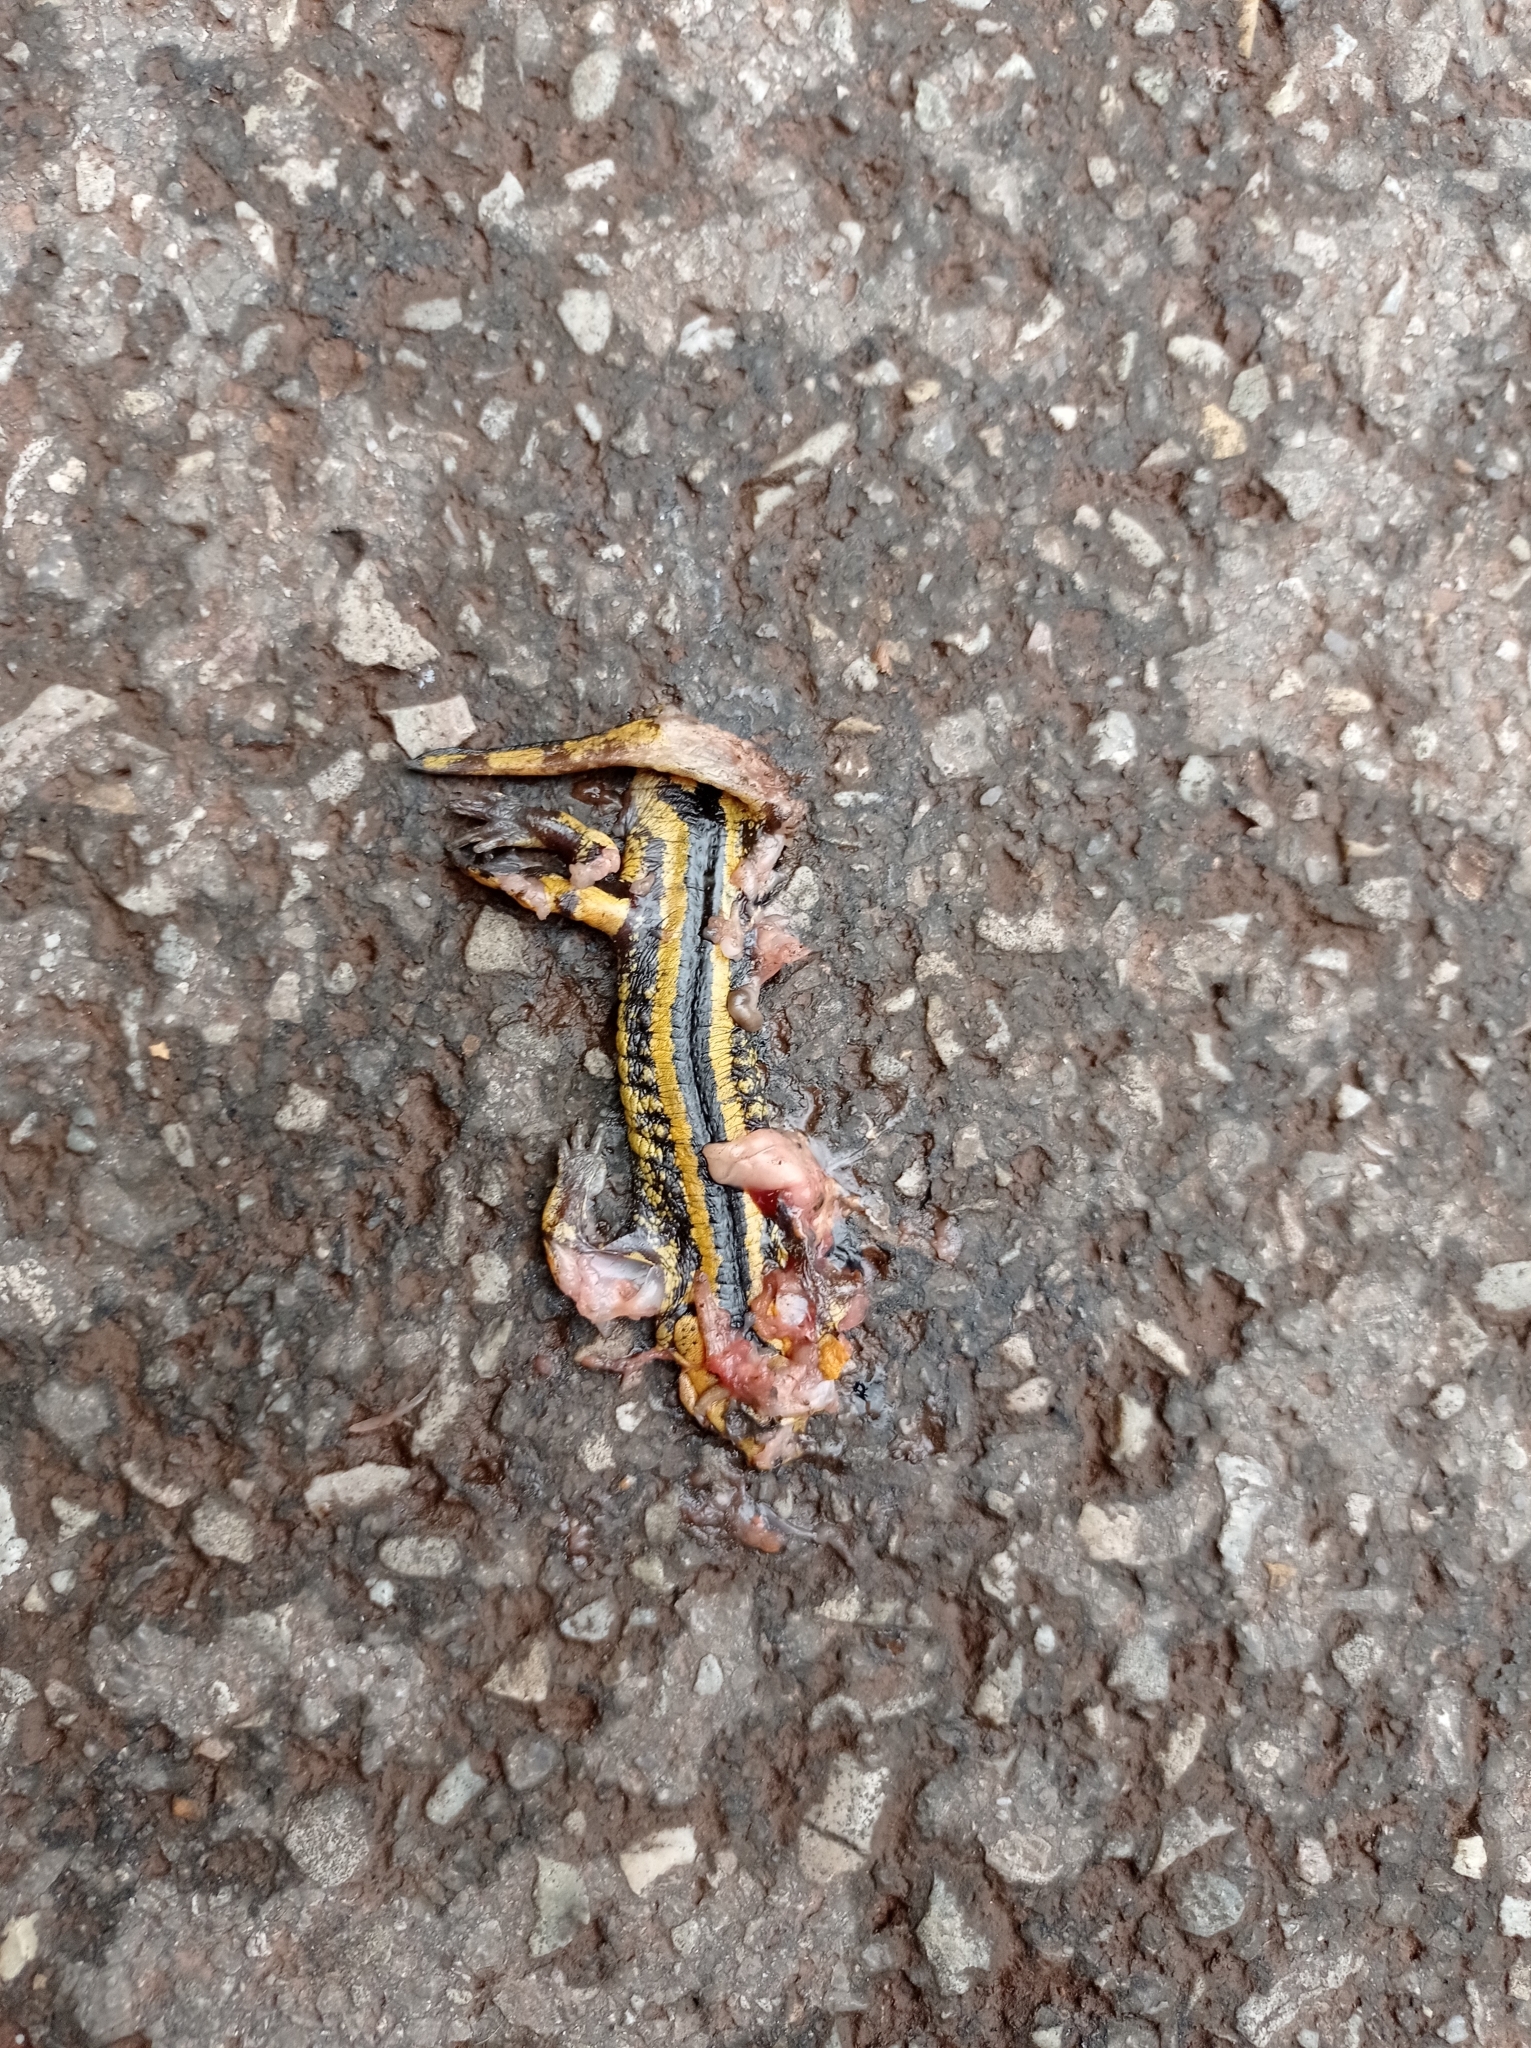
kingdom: Animalia
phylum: Chordata
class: Amphibia
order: Caudata
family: Salamandridae
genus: Salamandra
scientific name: Salamandra salamandra
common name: Fire salamander
